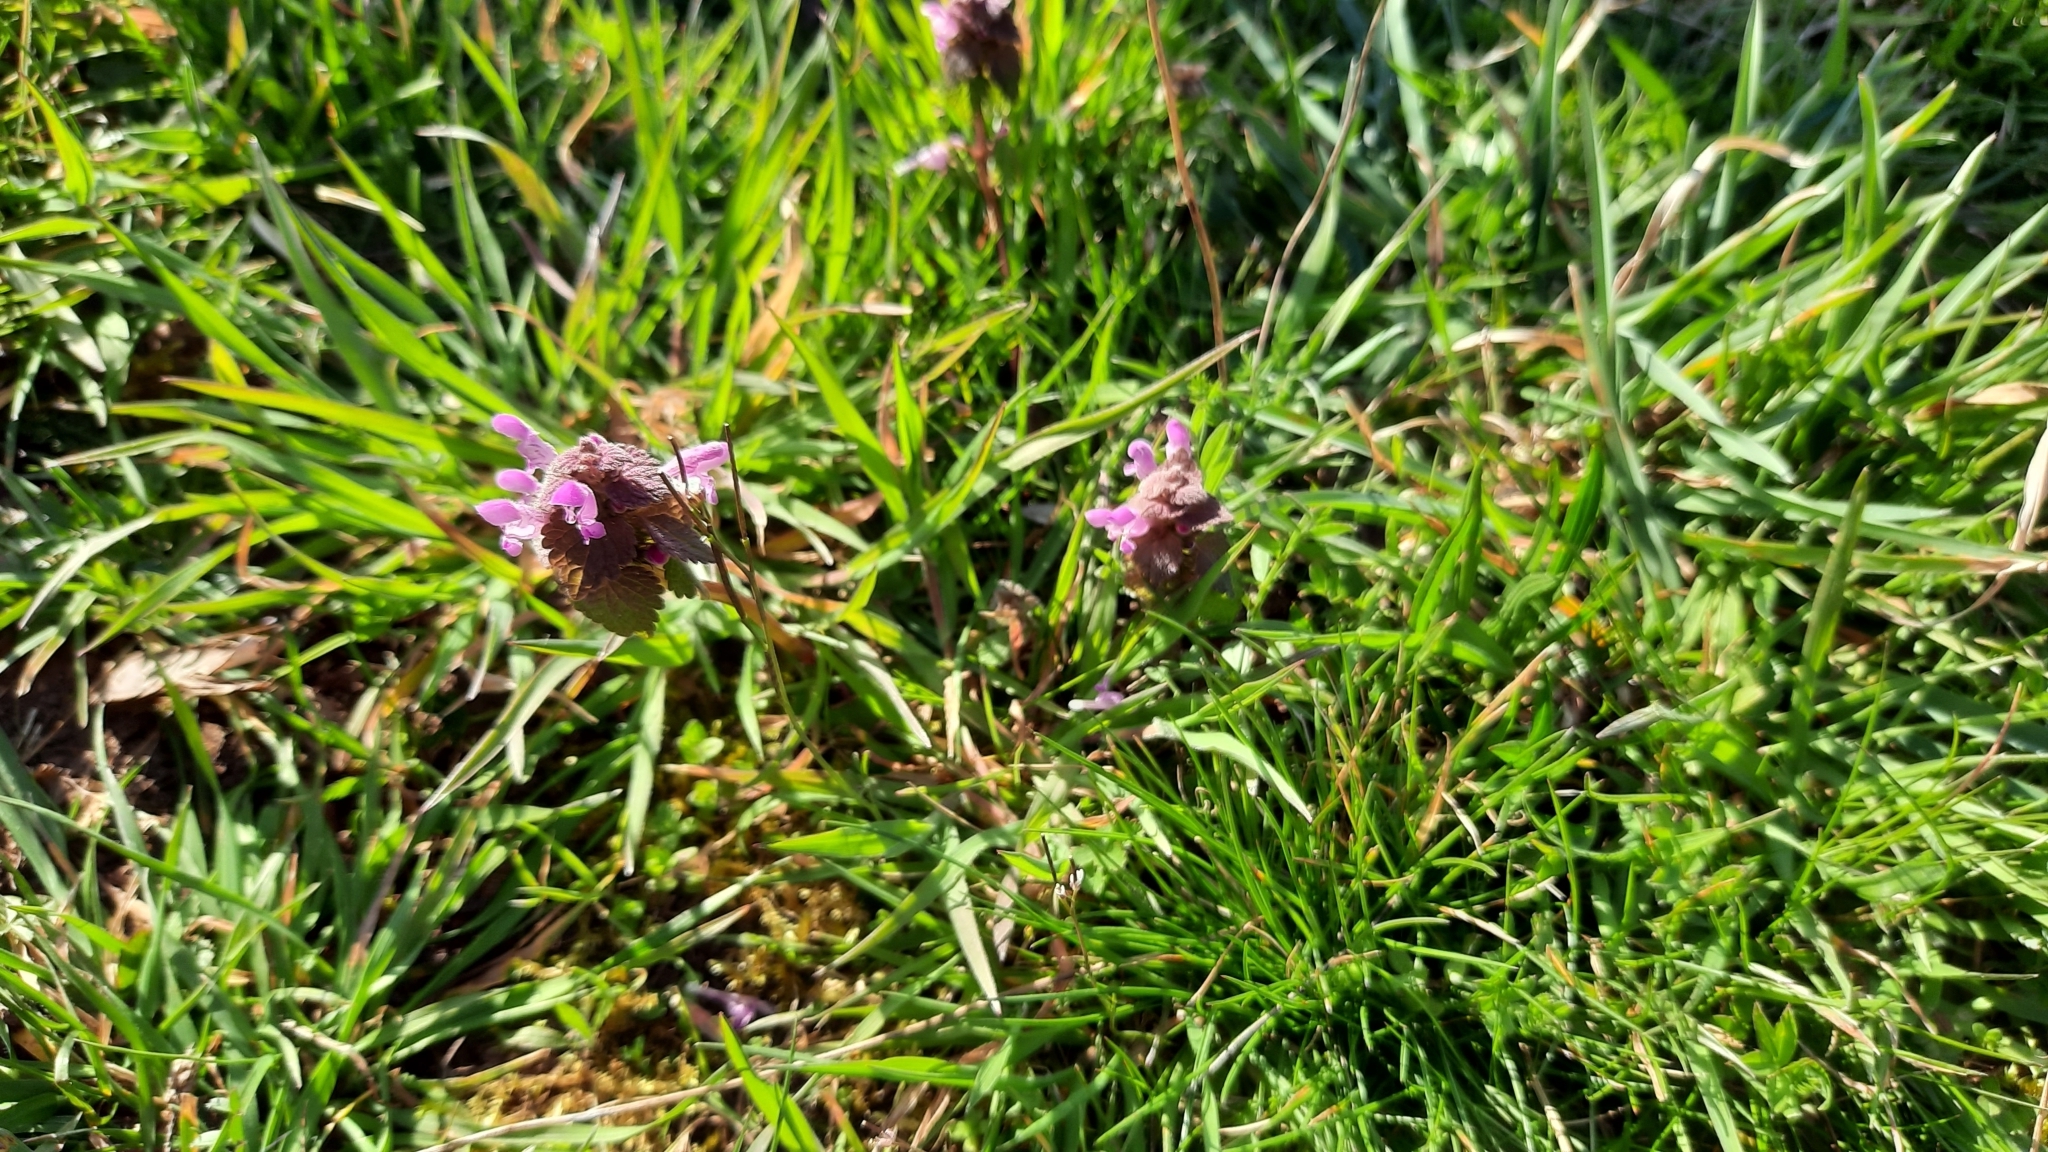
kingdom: Plantae
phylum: Tracheophyta
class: Magnoliopsida
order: Lamiales
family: Lamiaceae
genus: Lamium
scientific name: Lamium purpureum
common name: Red dead-nettle
